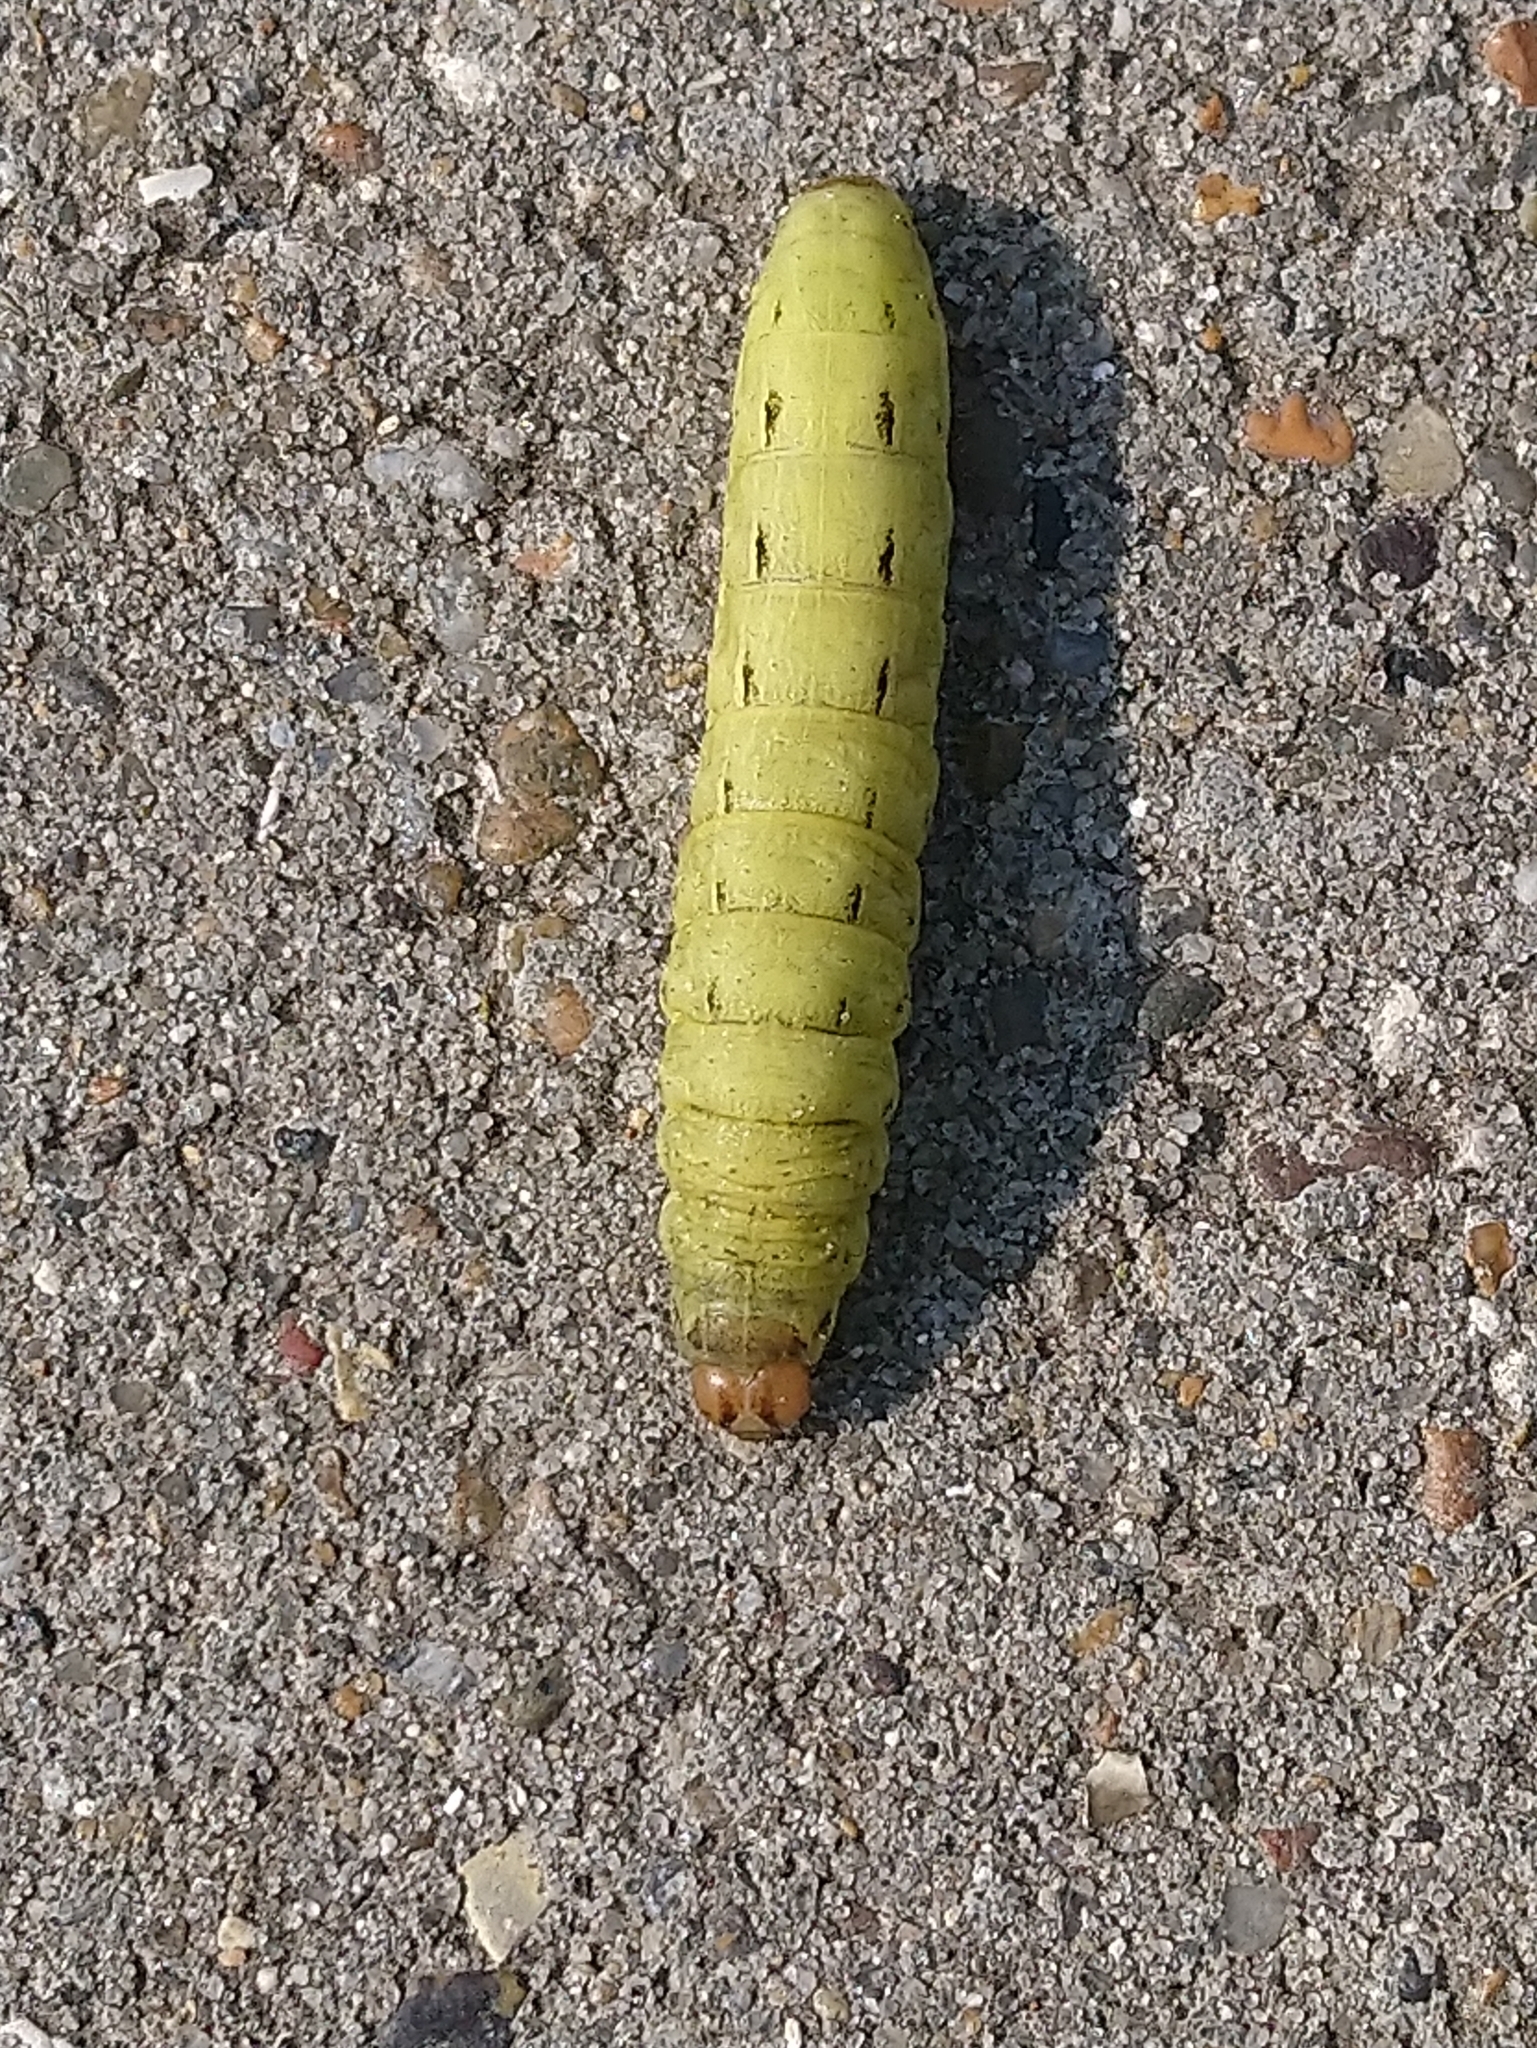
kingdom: Animalia
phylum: Arthropoda
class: Insecta
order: Lepidoptera
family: Noctuidae
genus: Noctua
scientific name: Noctua pronuba
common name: Large yellow underwing
